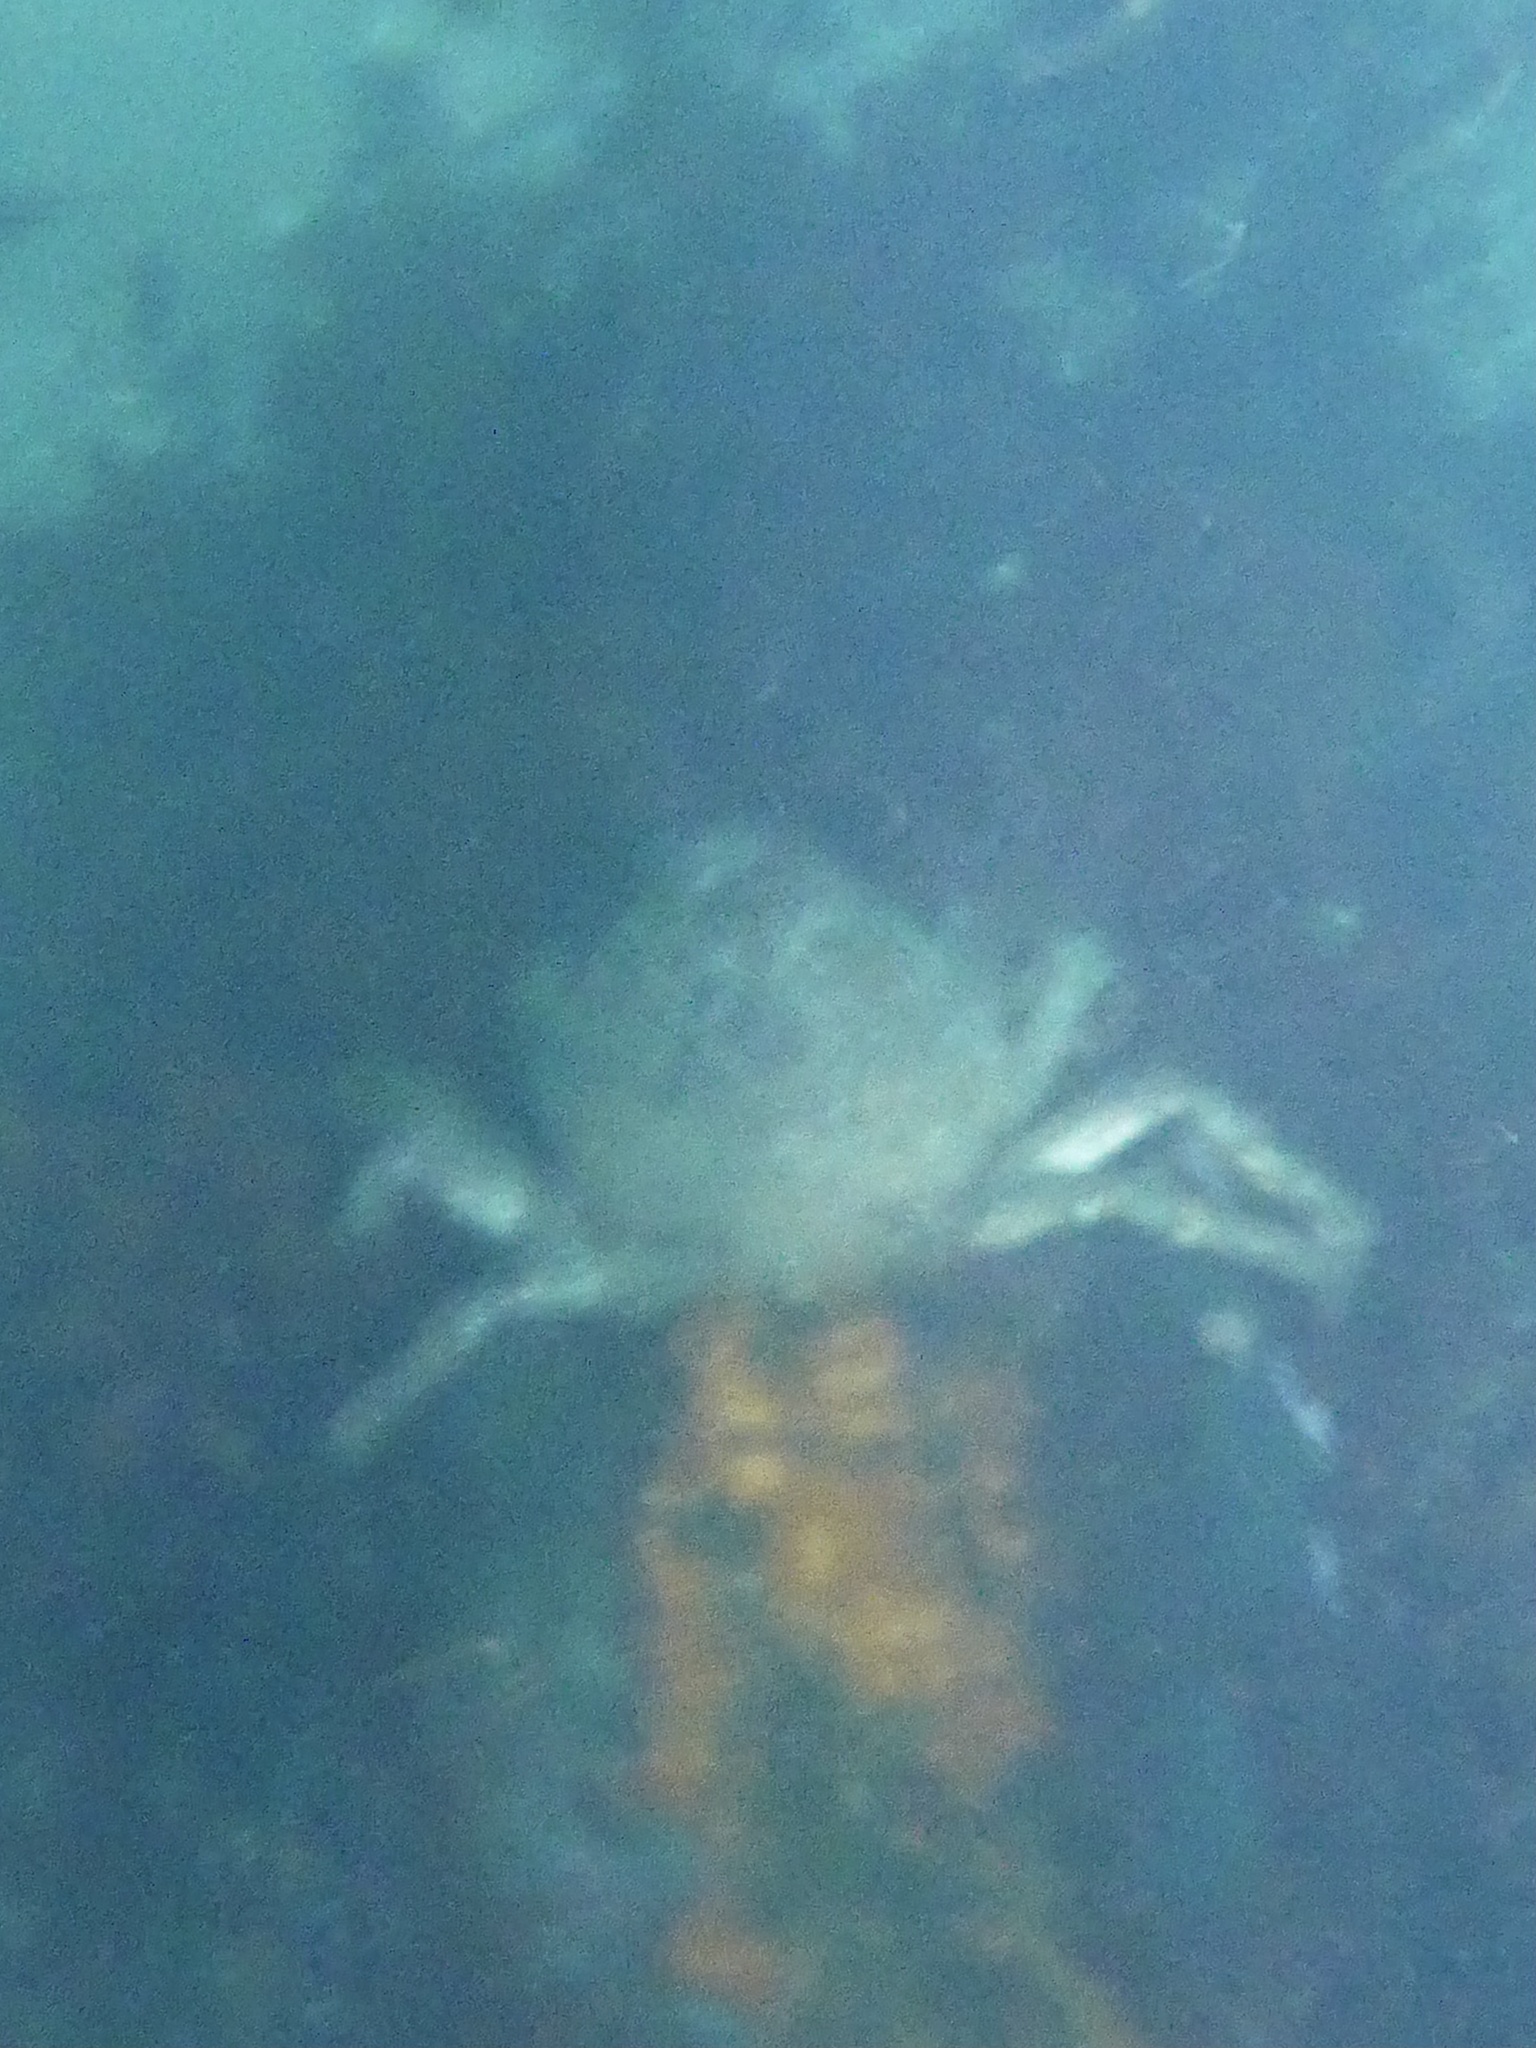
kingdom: Animalia
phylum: Arthropoda
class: Malacostraca
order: Decapoda
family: Epialtidae
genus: Loxorhynchus
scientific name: Loxorhynchus grandis
